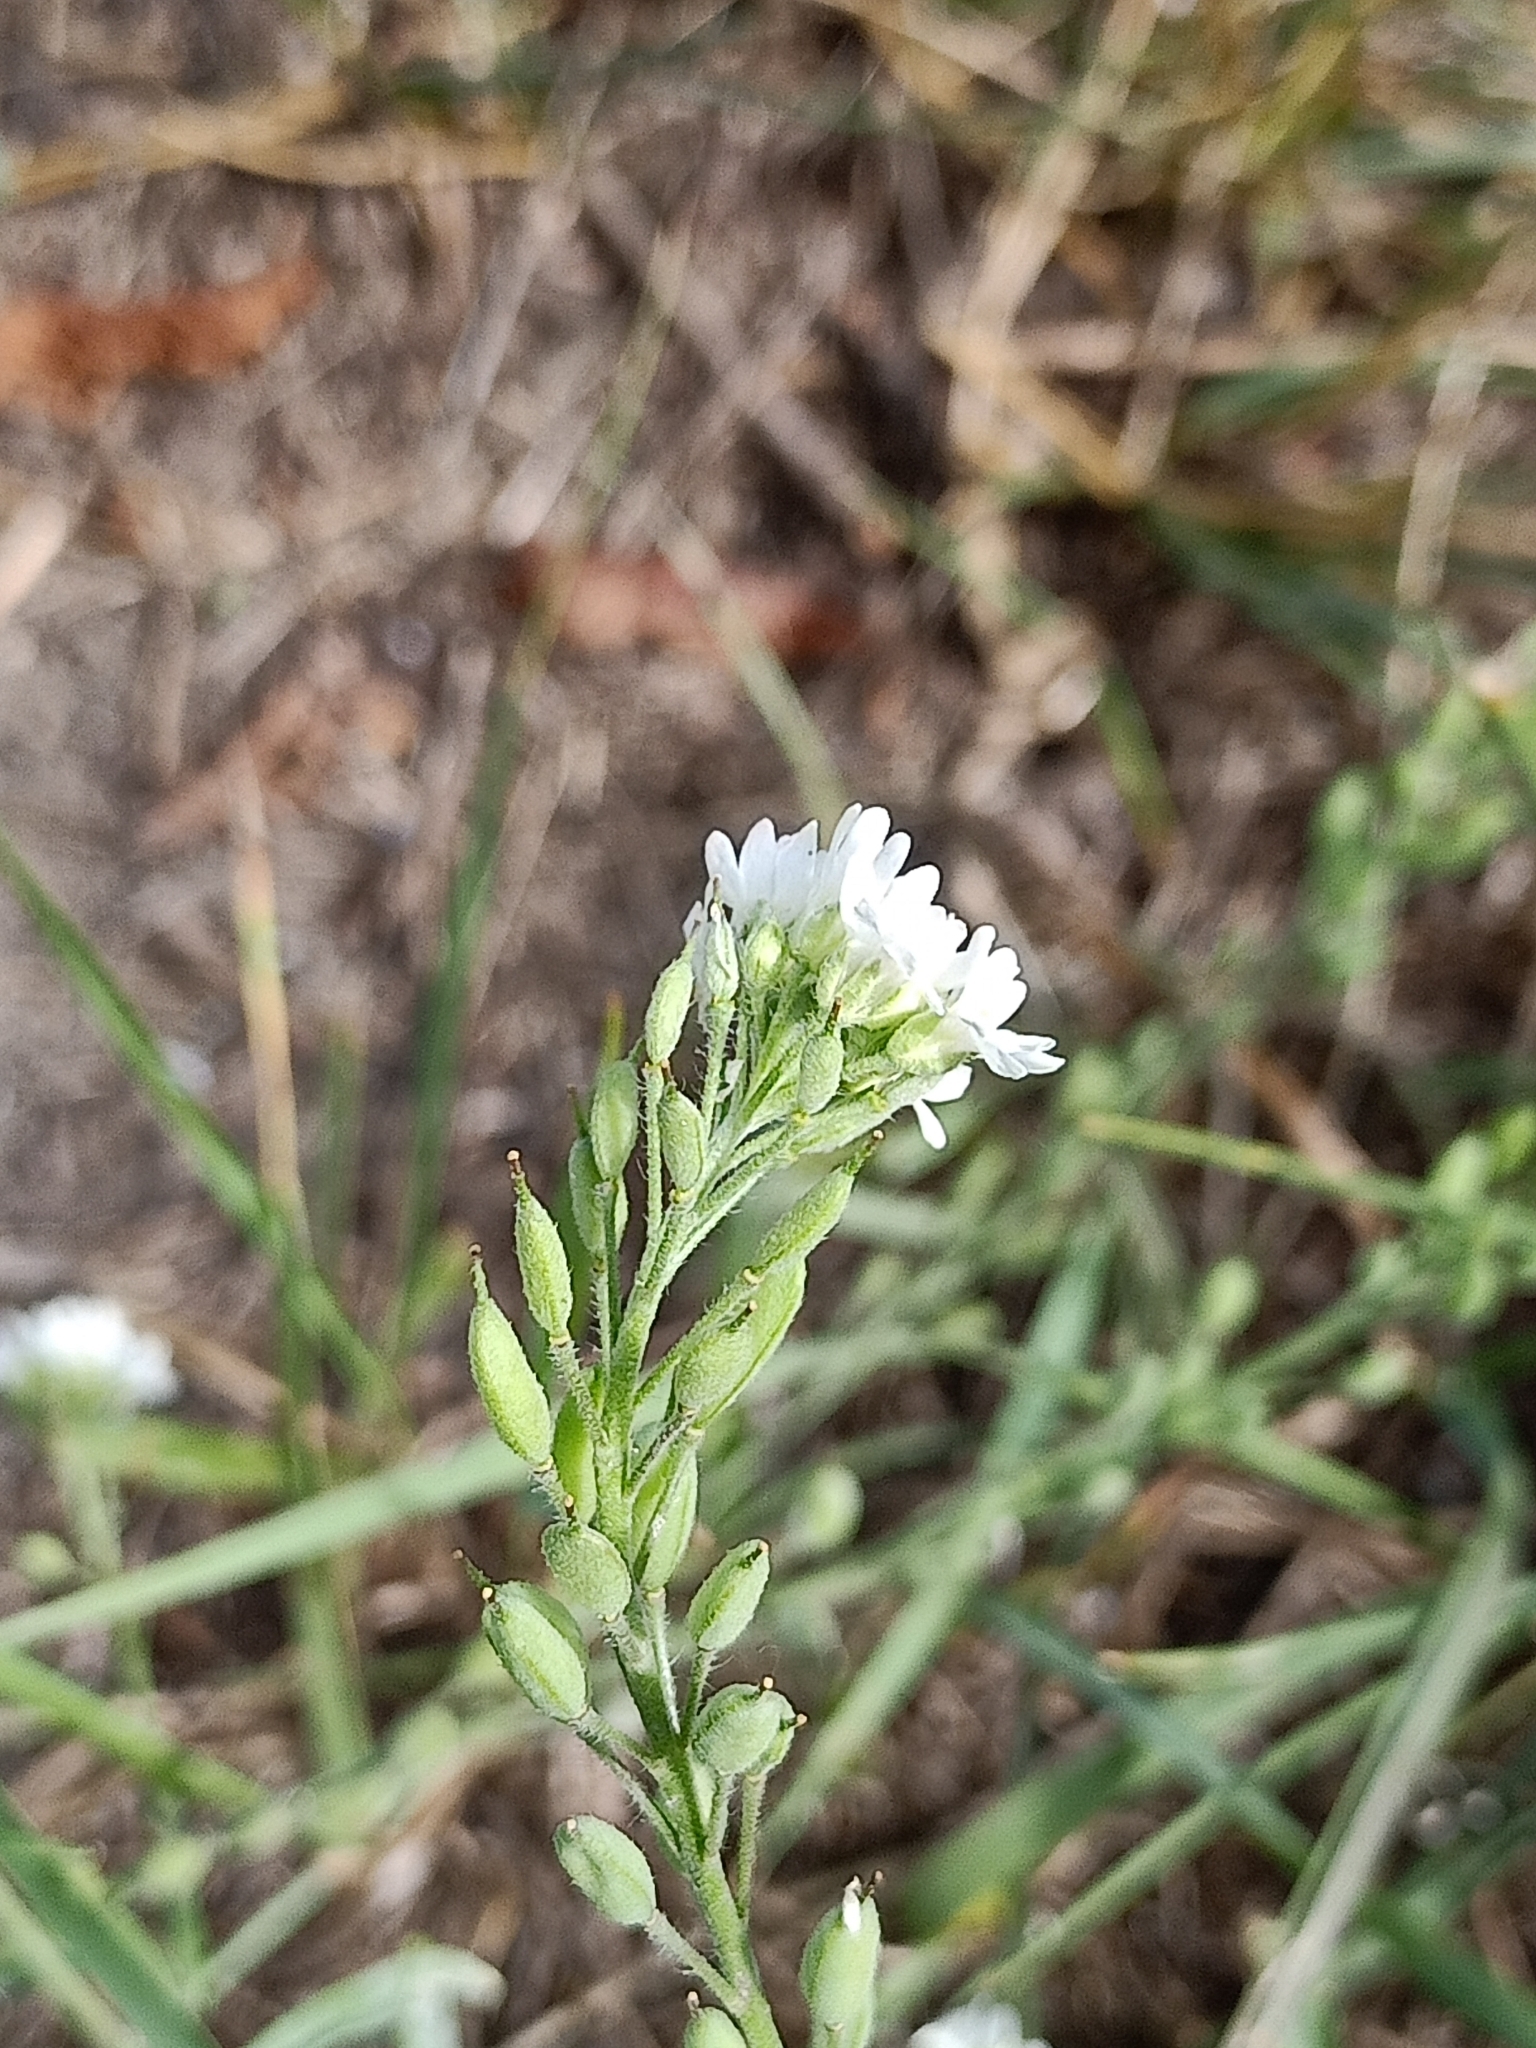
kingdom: Plantae
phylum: Tracheophyta
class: Magnoliopsida
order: Brassicales
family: Brassicaceae
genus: Berteroa
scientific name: Berteroa incana
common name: Hoary alison
